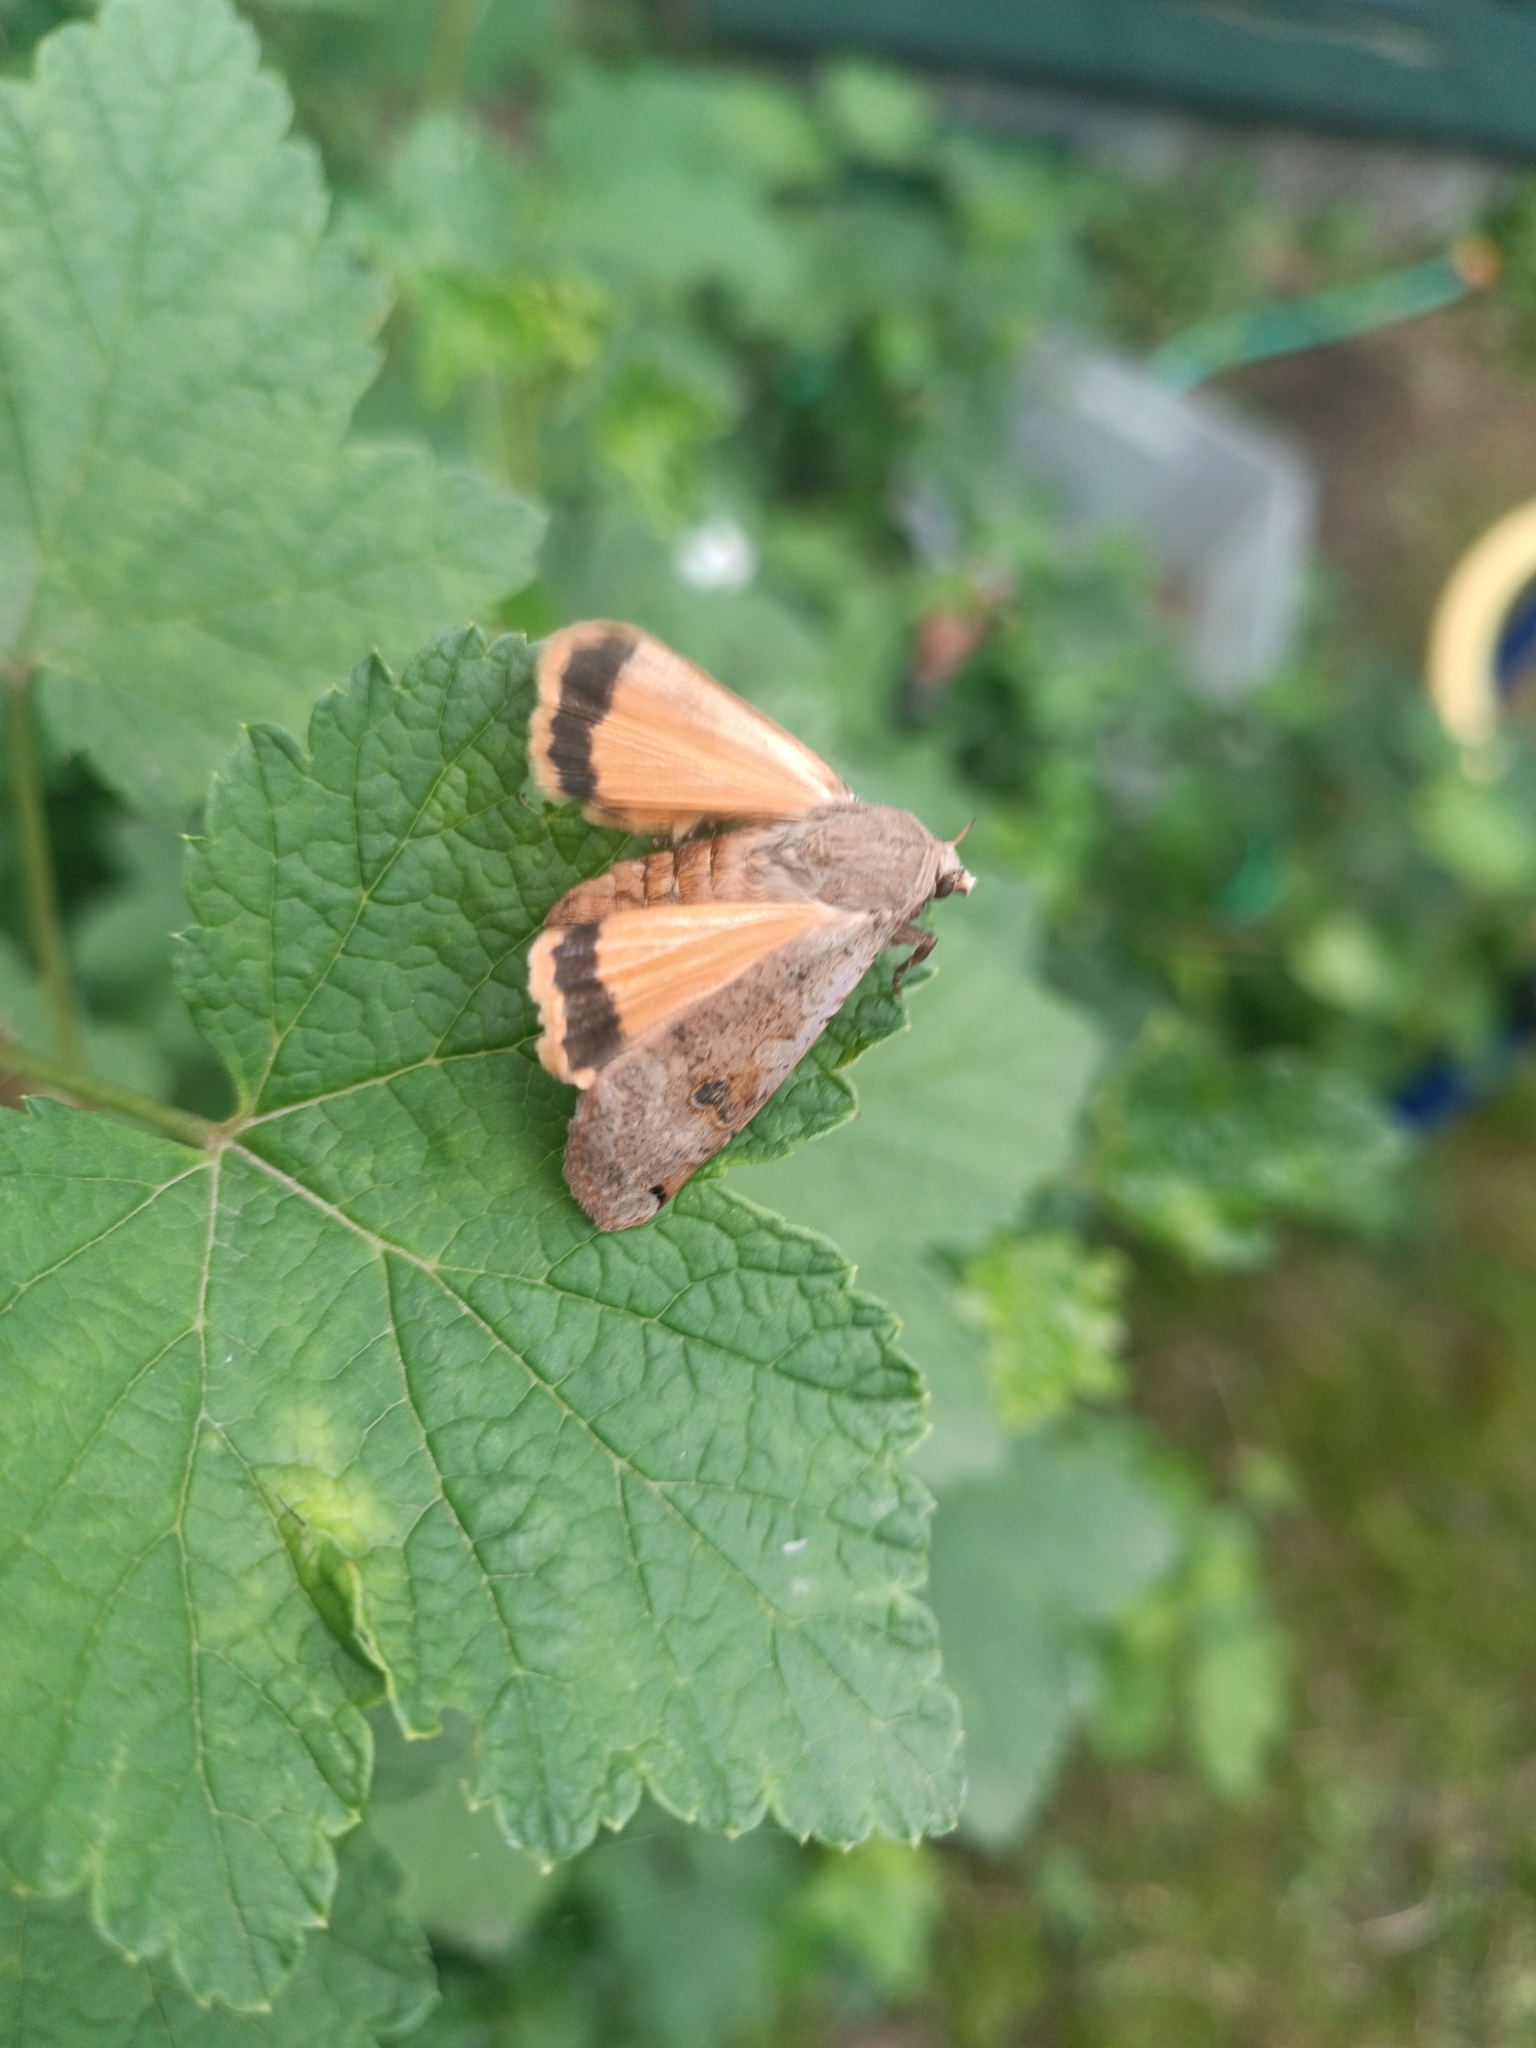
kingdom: Animalia
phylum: Arthropoda
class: Insecta
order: Lepidoptera
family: Noctuidae
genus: Noctua
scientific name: Noctua pronuba
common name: Large yellow underwing
